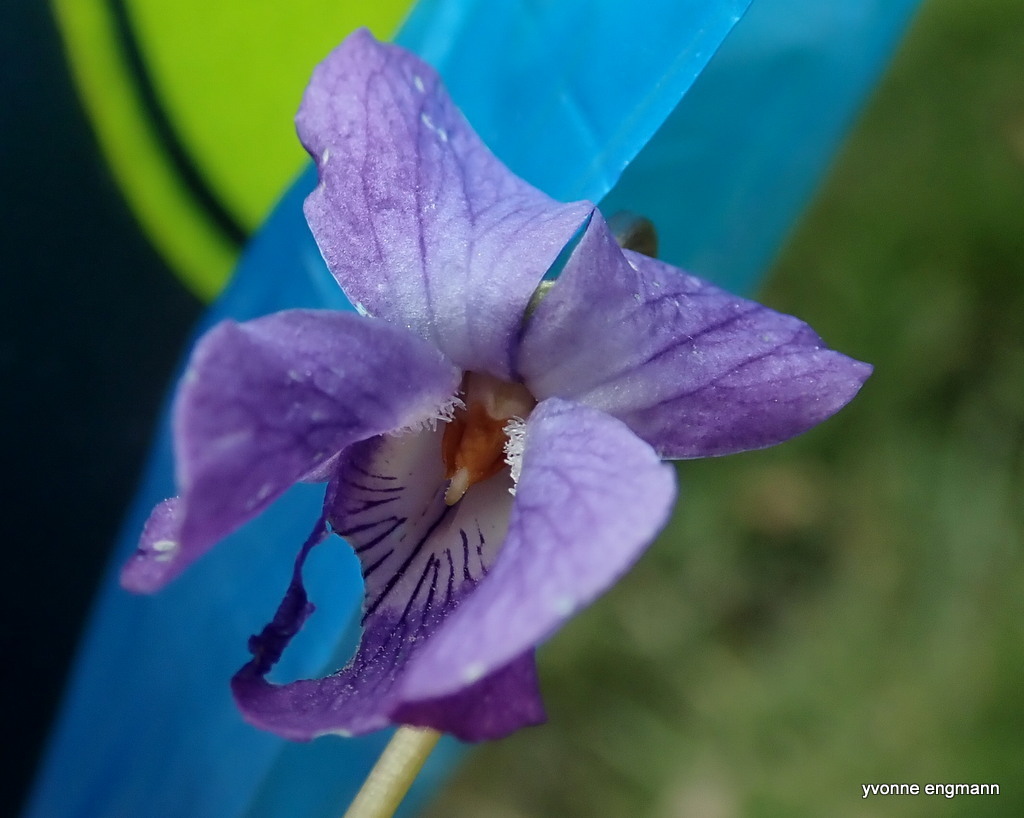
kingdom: Plantae
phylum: Tracheophyta
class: Magnoliopsida
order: Malpighiales
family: Violaceae
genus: Viola
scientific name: Viola odorata
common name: Sweet violet
